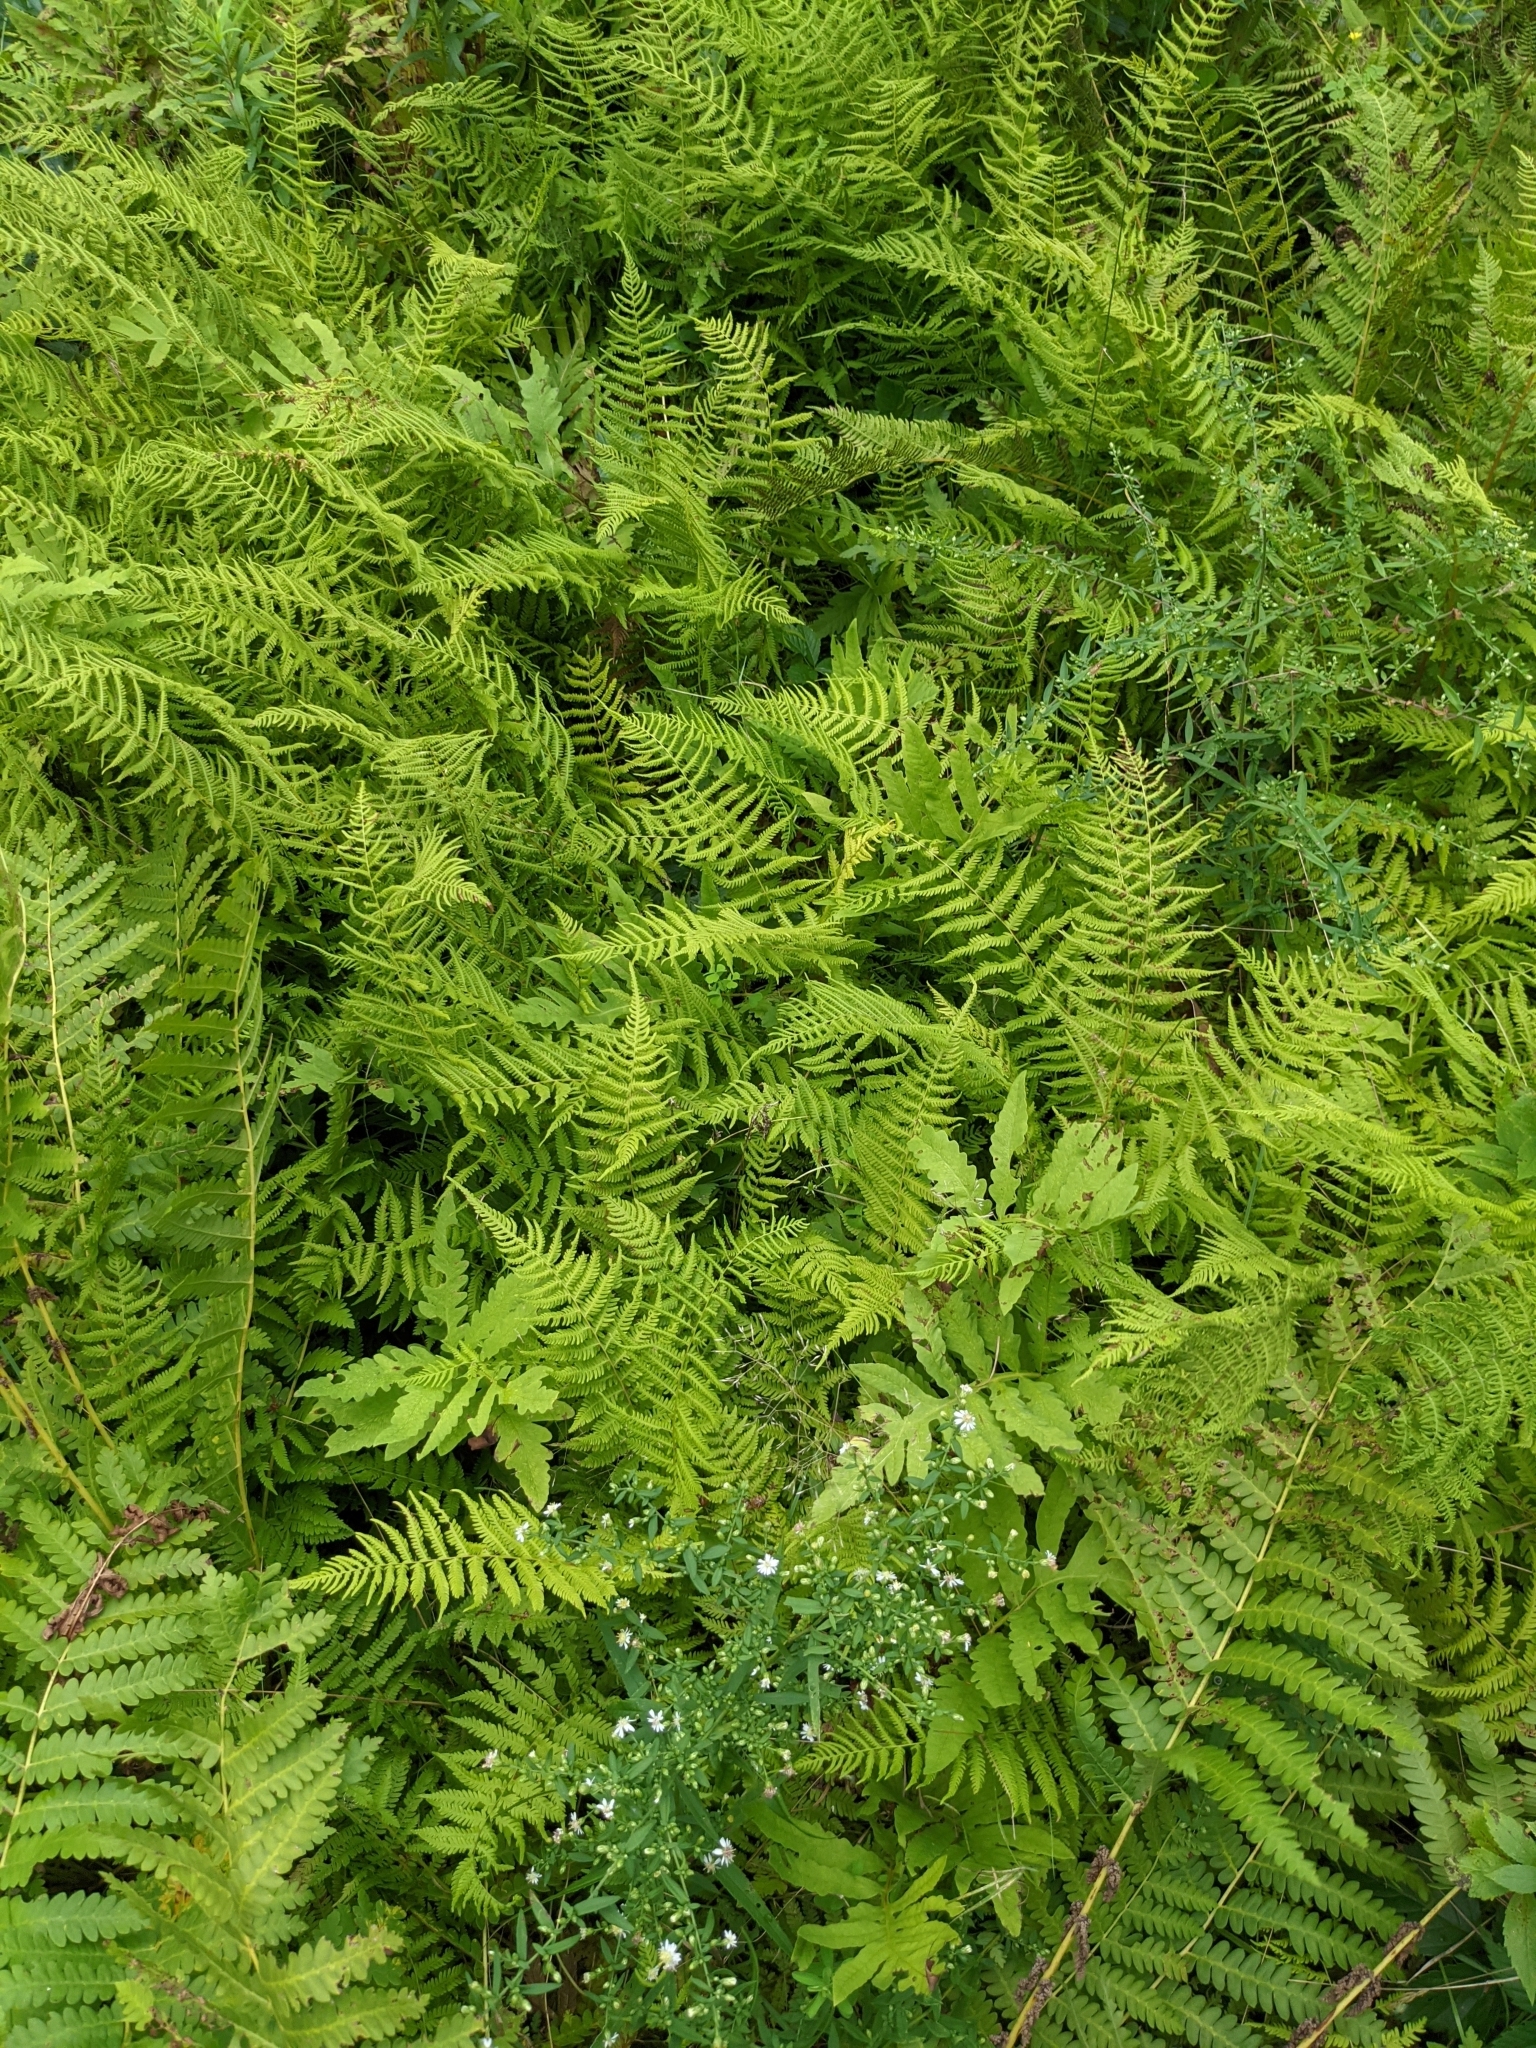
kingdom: Plantae
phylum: Tracheophyta
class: Polypodiopsida
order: Polypodiales
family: Thelypteridaceae
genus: Amauropelta
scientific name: Amauropelta noveboracensis
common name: New york fern
